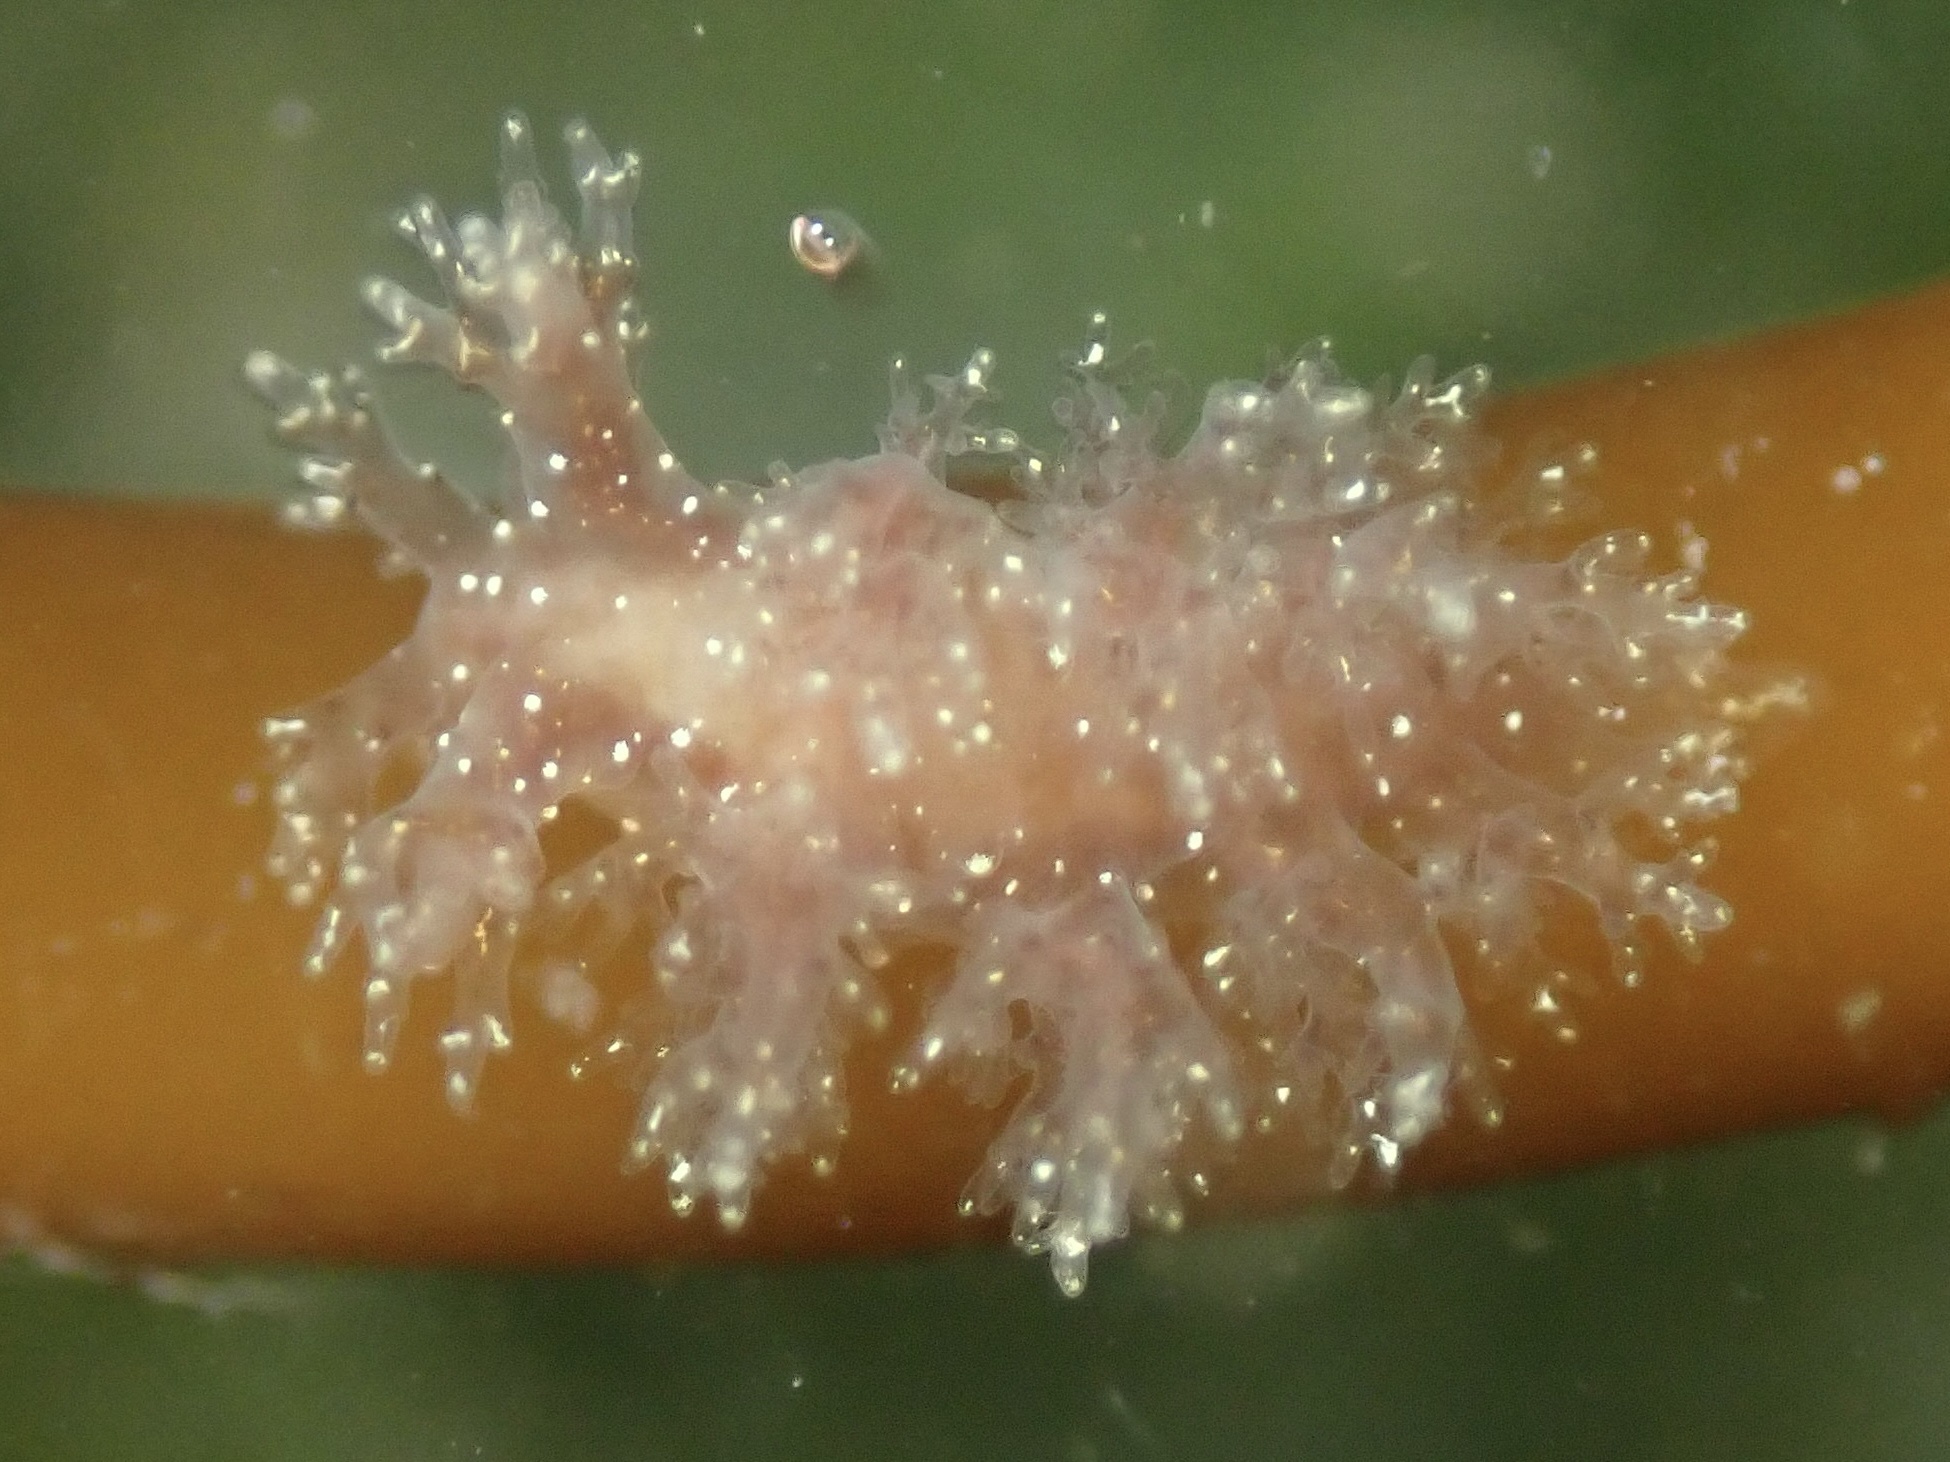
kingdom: Animalia
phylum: Mollusca
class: Gastropoda
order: Nudibranchia
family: Dendronotidae
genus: Dendronotus
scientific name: Dendronotus venustus
